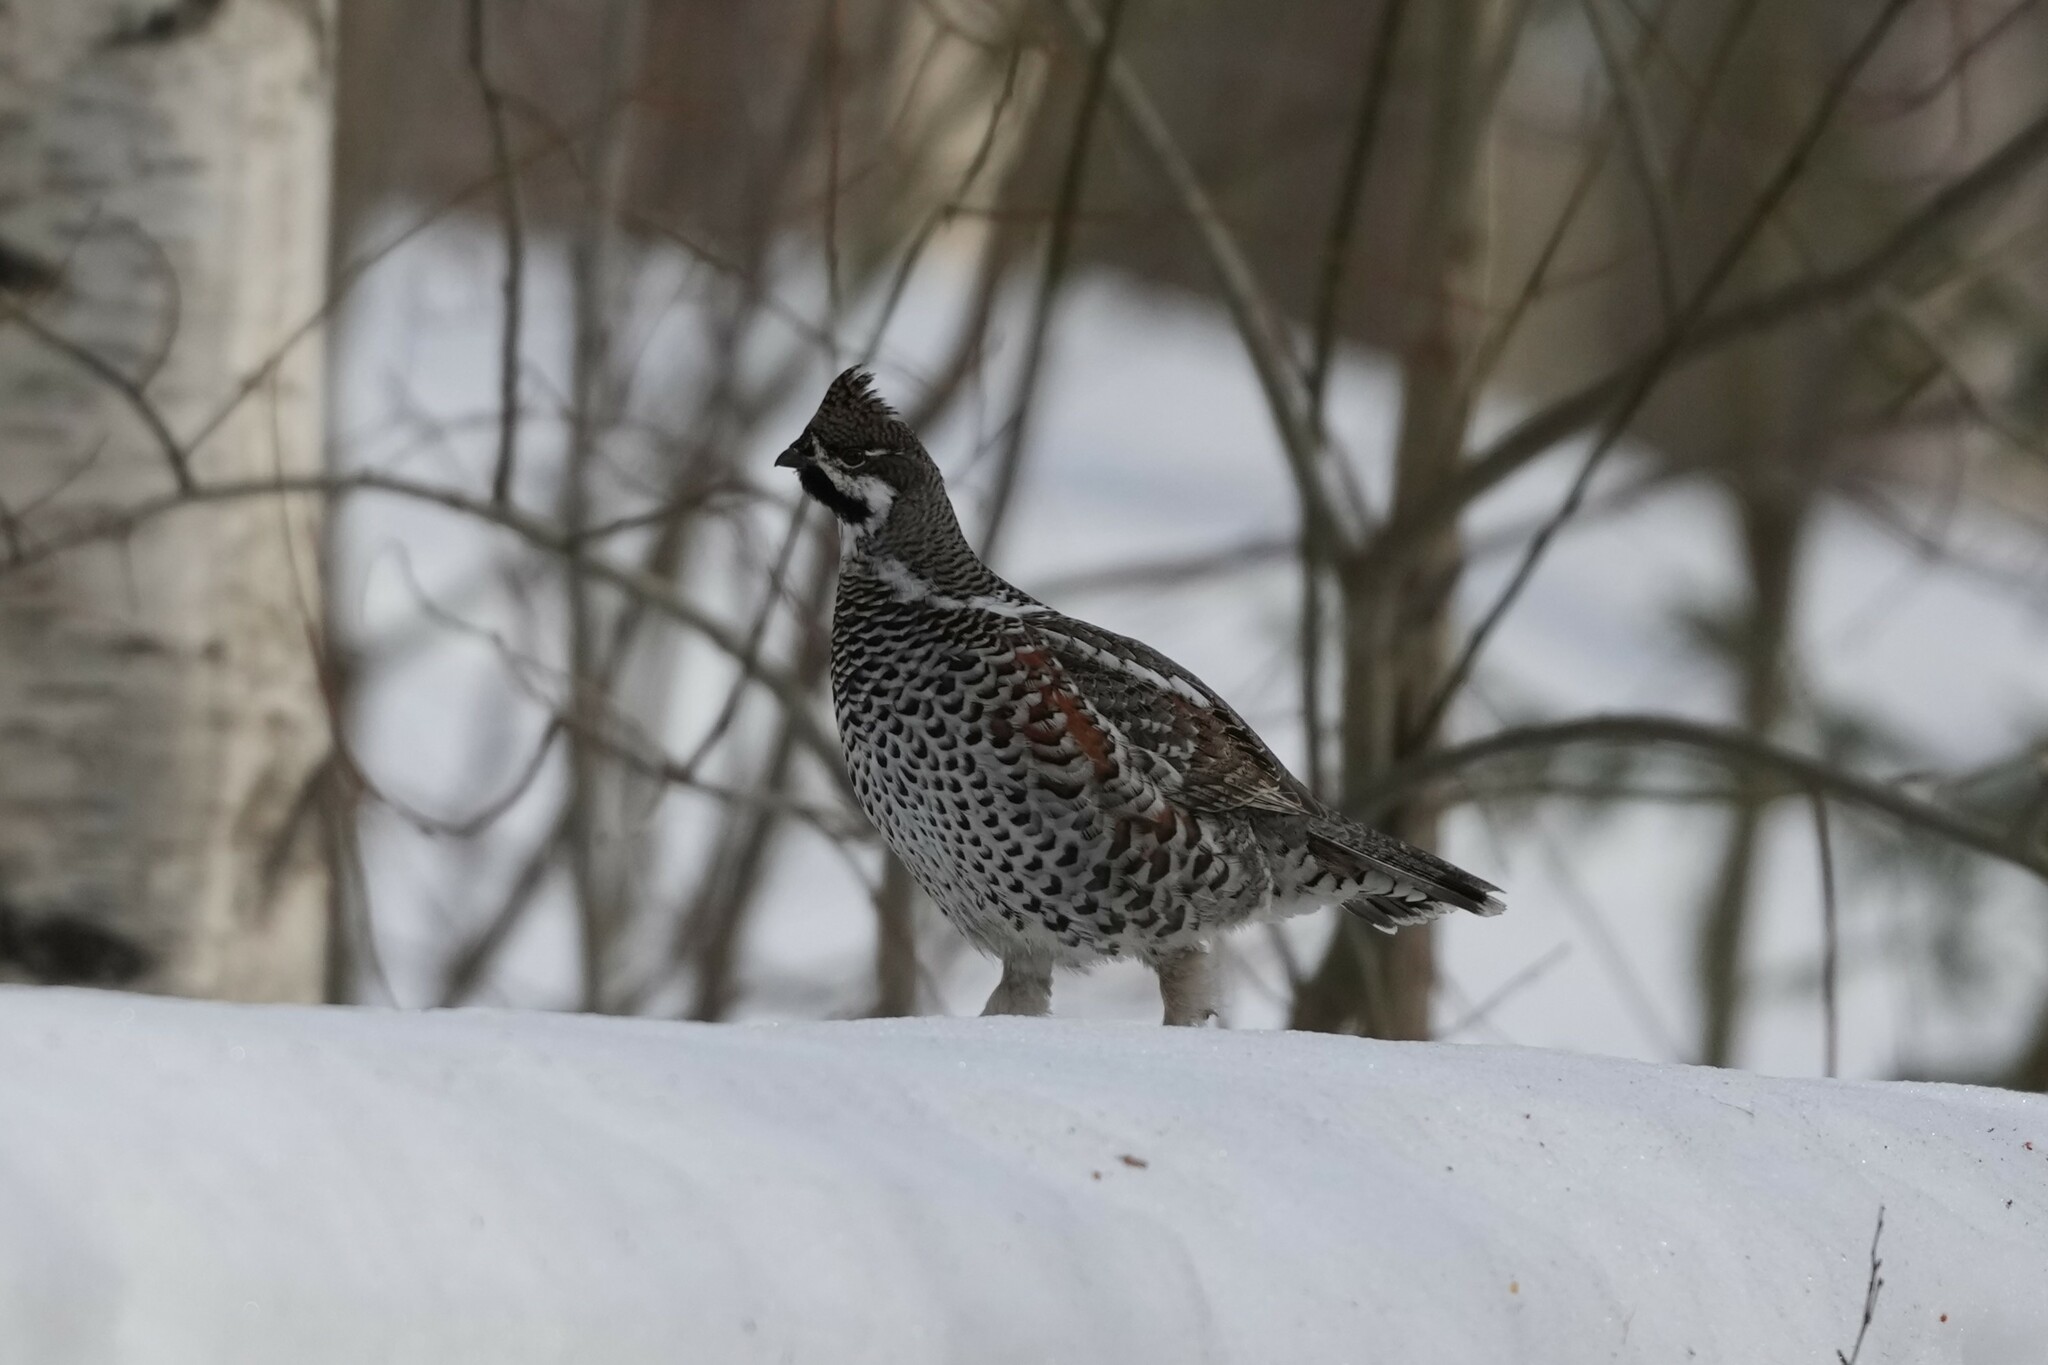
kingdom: Animalia
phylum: Chordata
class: Aves
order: Galliformes
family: Phasianidae
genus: Tetrastes
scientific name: Tetrastes bonasia
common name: Hazel grouse
